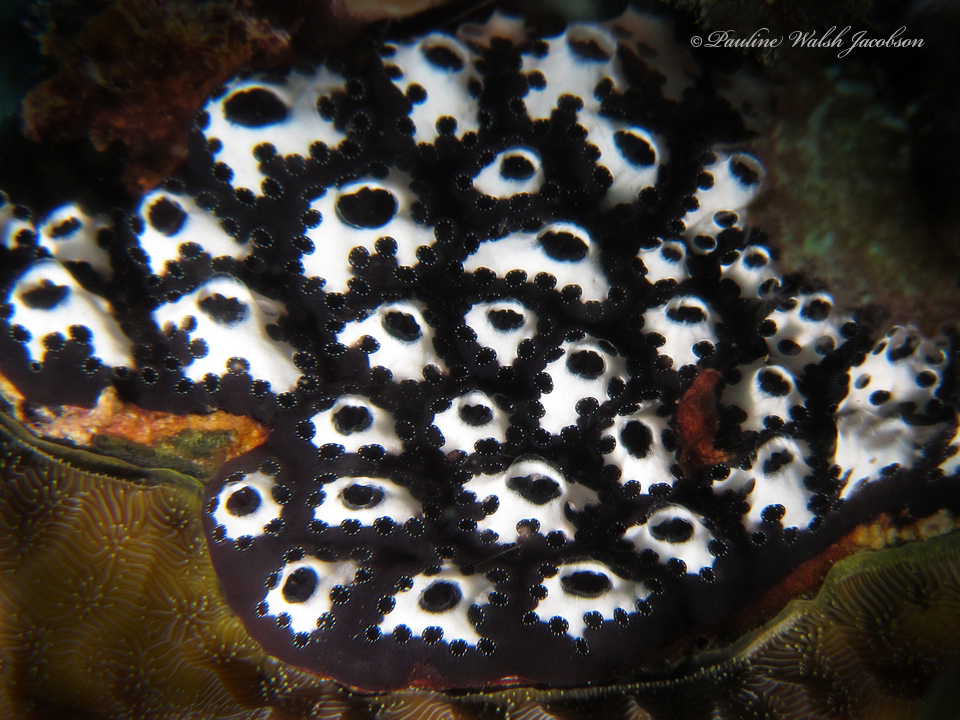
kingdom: Animalia
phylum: Chordata
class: Ascidiacea
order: Aplousobranchia
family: Holozoidae
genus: Distaplia
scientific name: Distaplia bermudensis
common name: Mottled encrusting tunicate
